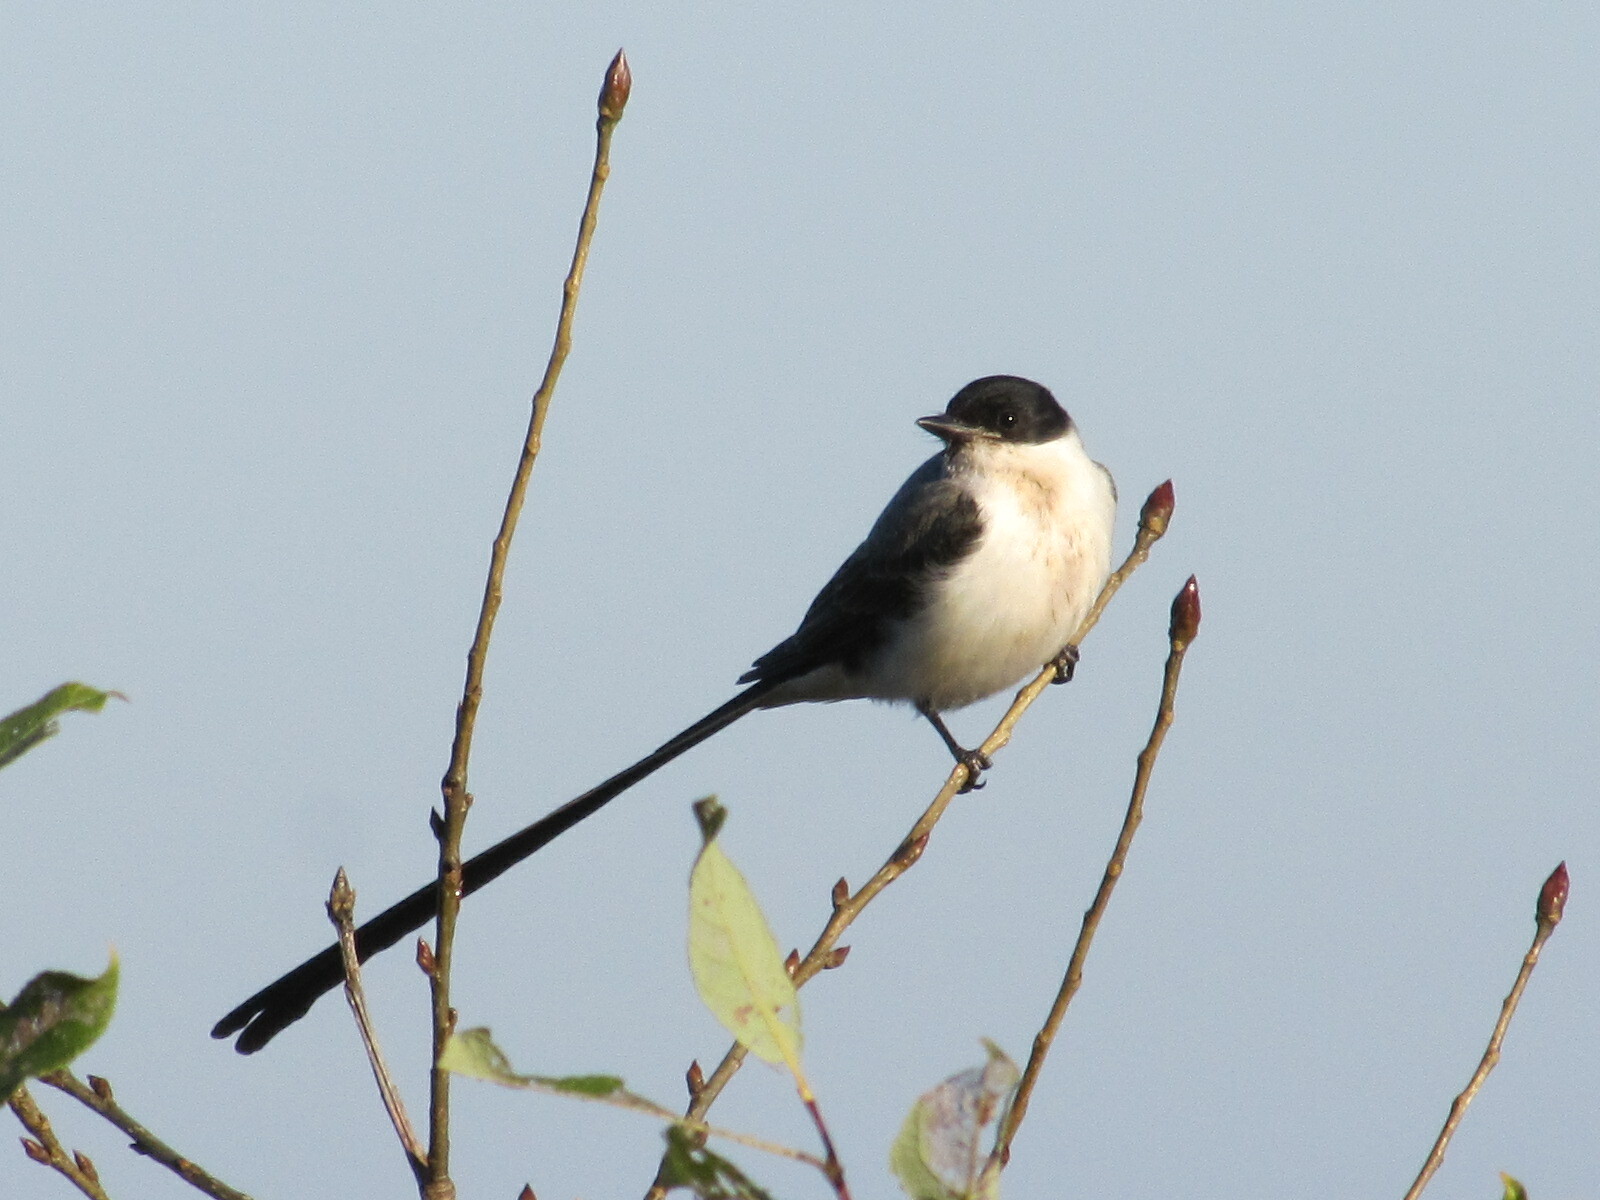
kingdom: Animalia
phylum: Chordata
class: Aves
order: Passeriformes
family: Tyrannidae
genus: Tyrannus
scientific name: Tyrannus savana
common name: Fork-tailed flycatcher
